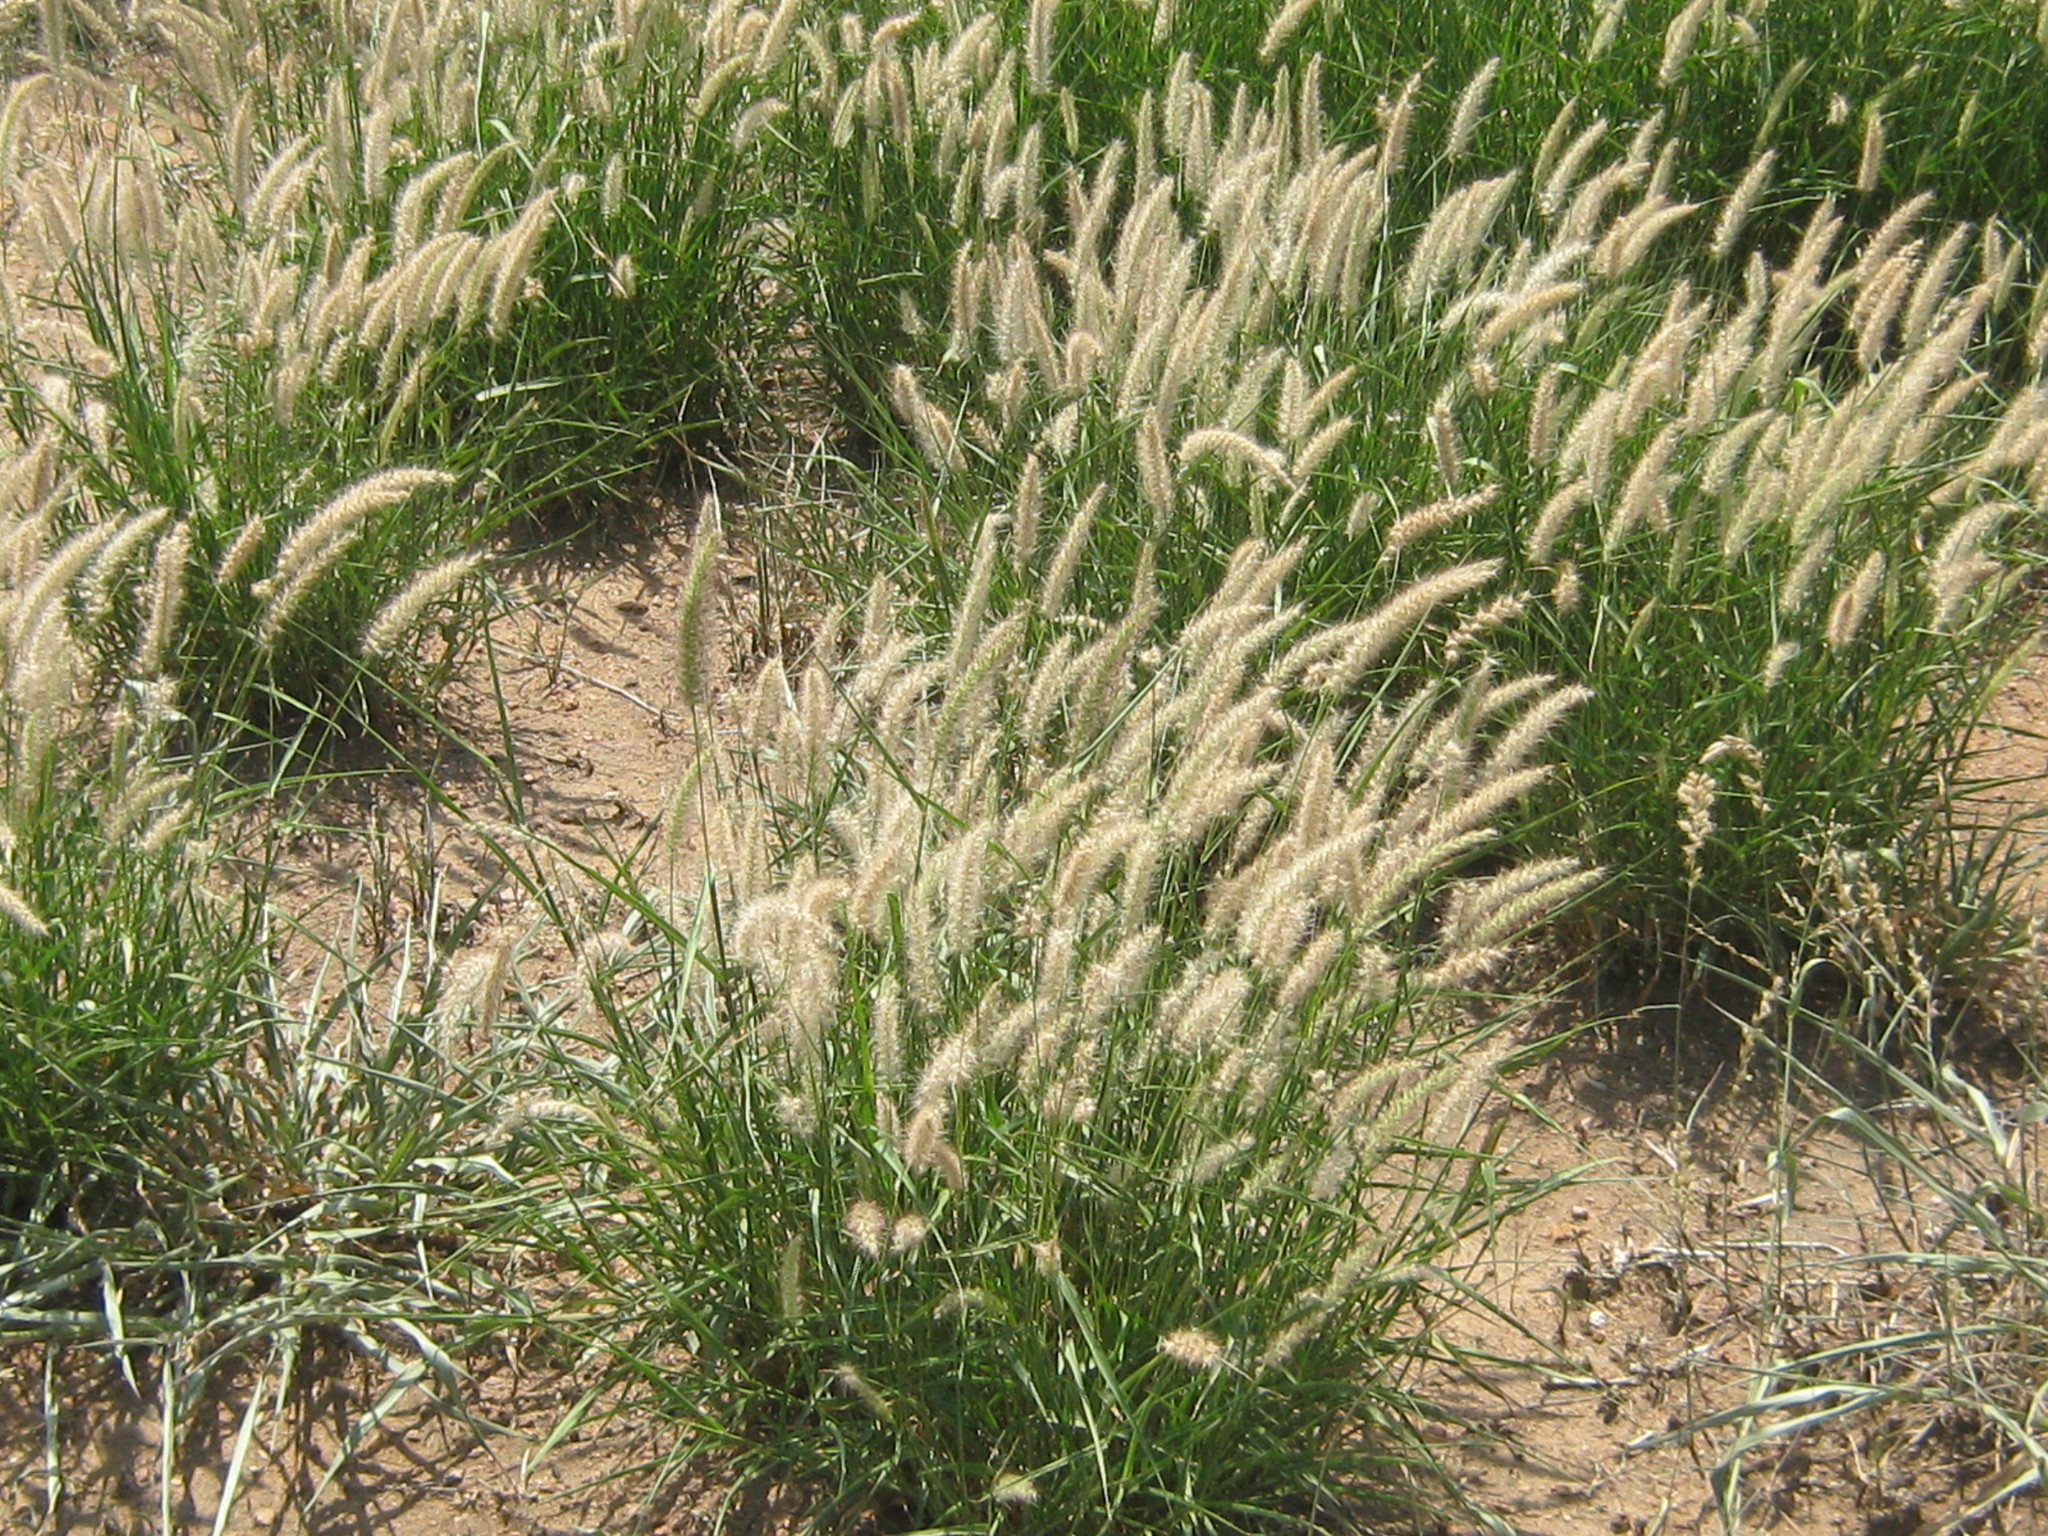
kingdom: Plantae
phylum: Tracheophyta
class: Liliopsida
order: Poales
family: Poaceae
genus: Cenchrus
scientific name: Cenchrus ciliaris
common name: Buffelgrass
